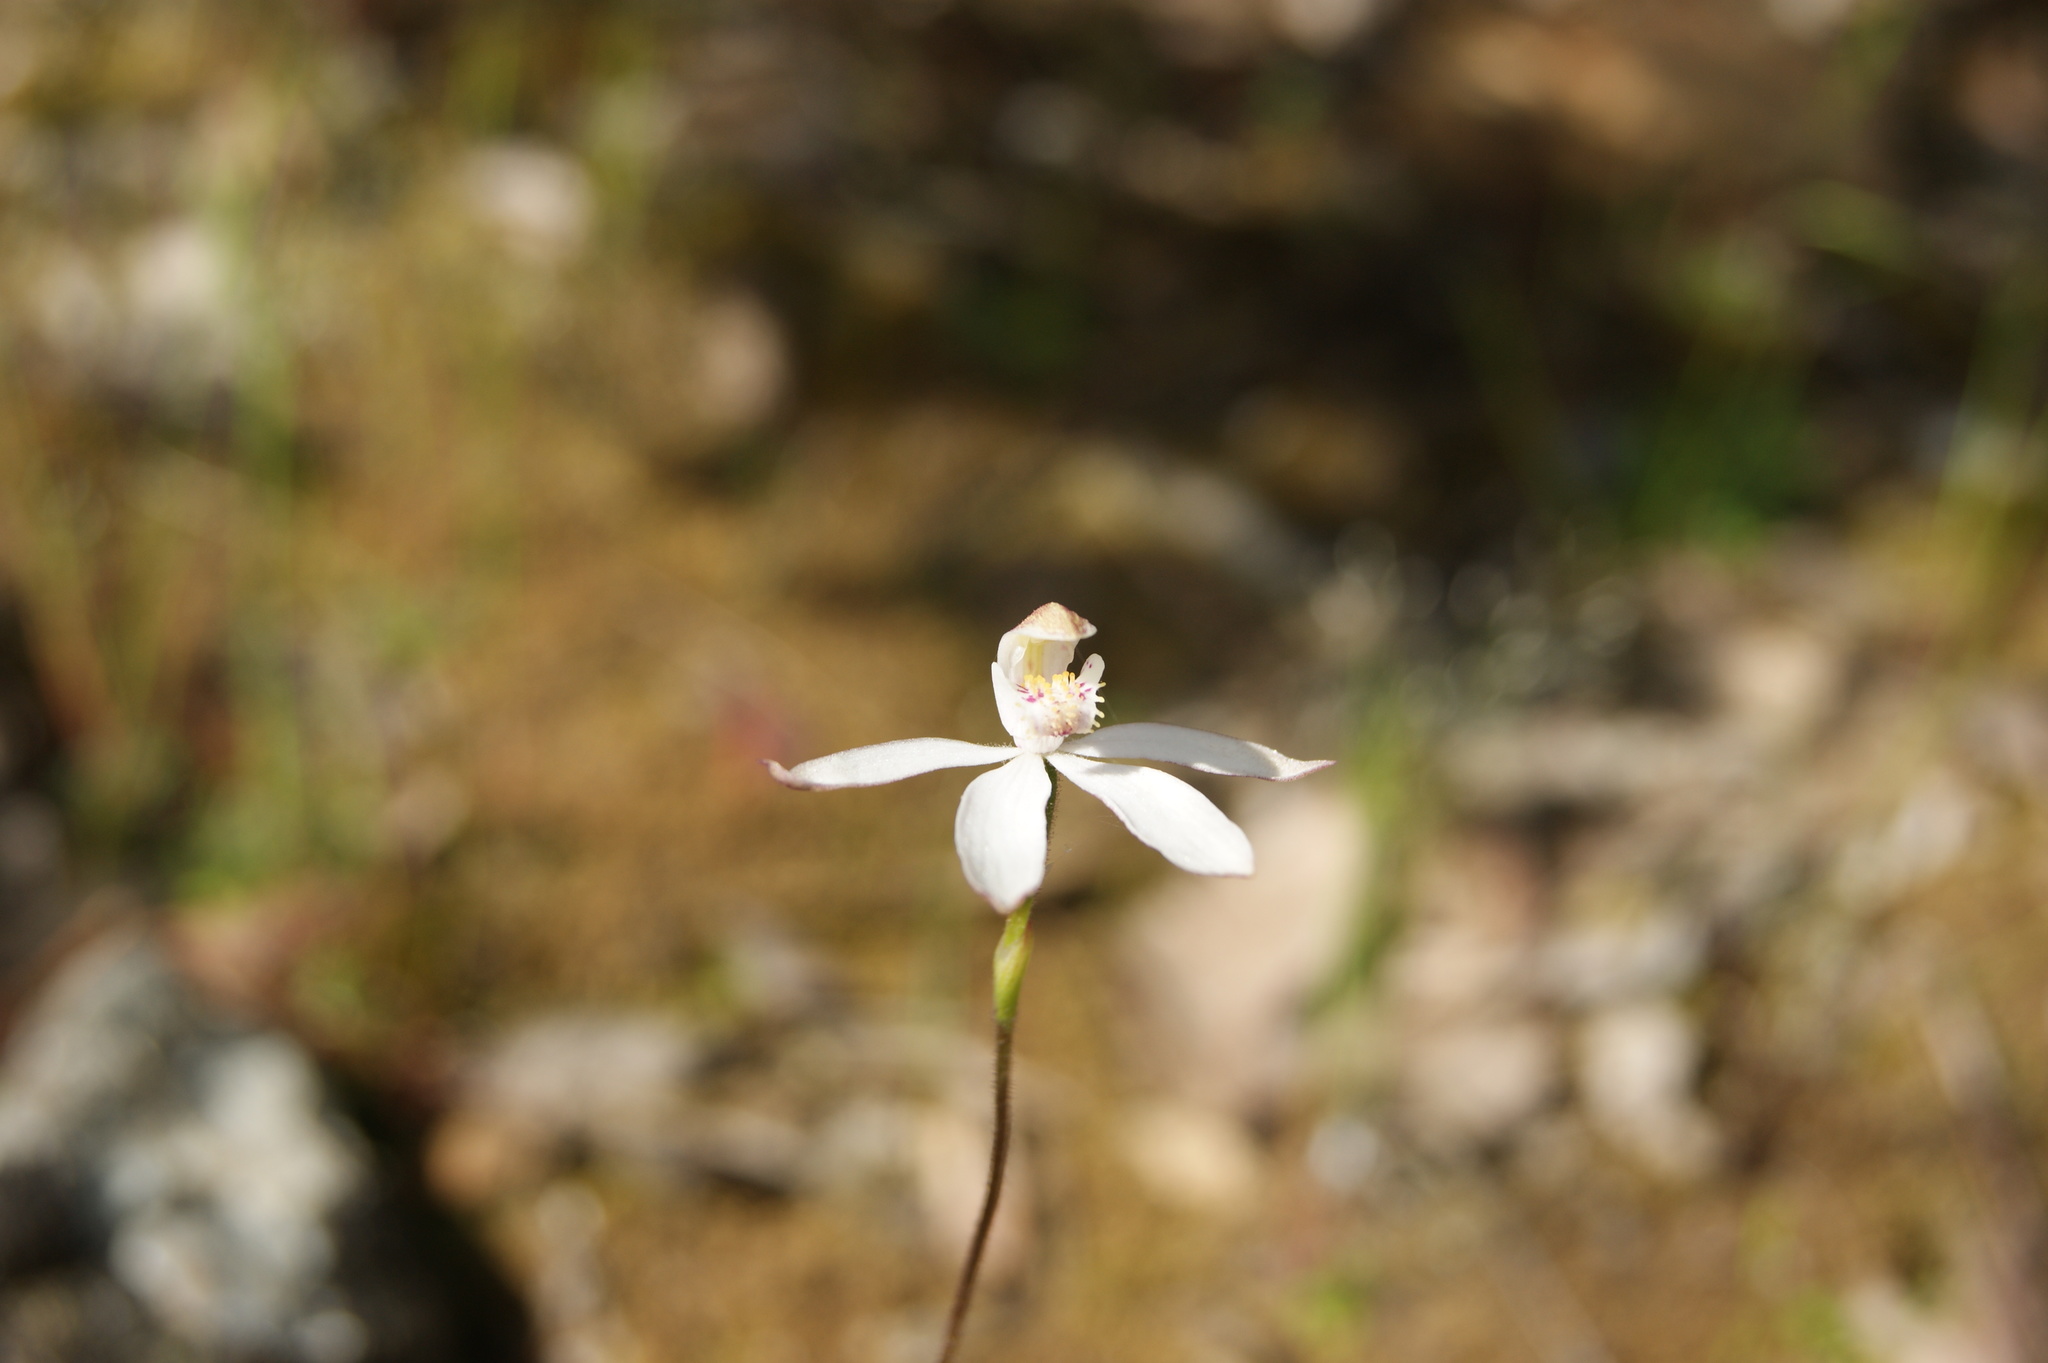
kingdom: Plantae
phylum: Tracheophyta
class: Liliopsida
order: Asparagales
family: Orchidaceae
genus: Caladenia
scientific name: Caladenia moschata
